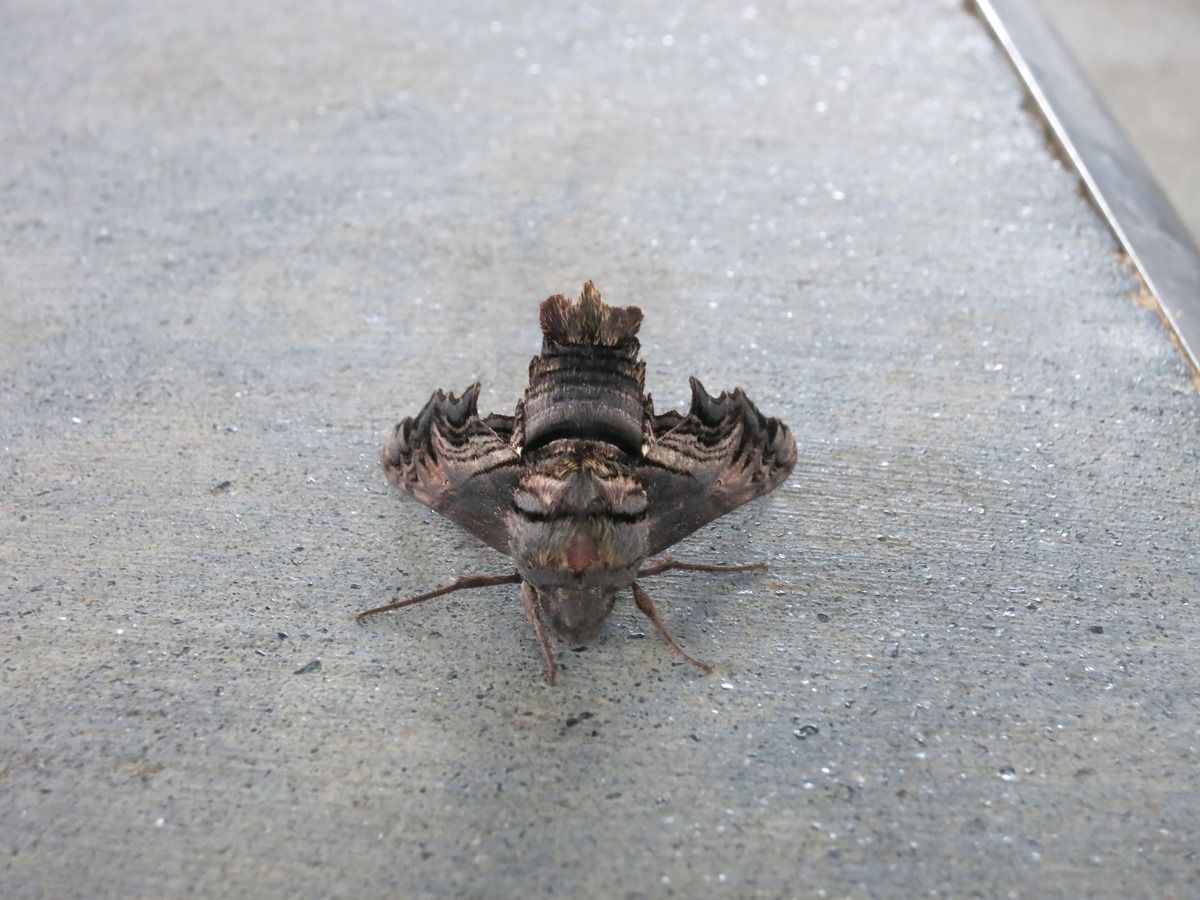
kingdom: Animalia
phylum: Arthropoda
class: Insecta
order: Lepidoptera
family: Sphingidae
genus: Sphecodina
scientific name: Sphecodina abbottii
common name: Abbott's sphinx
